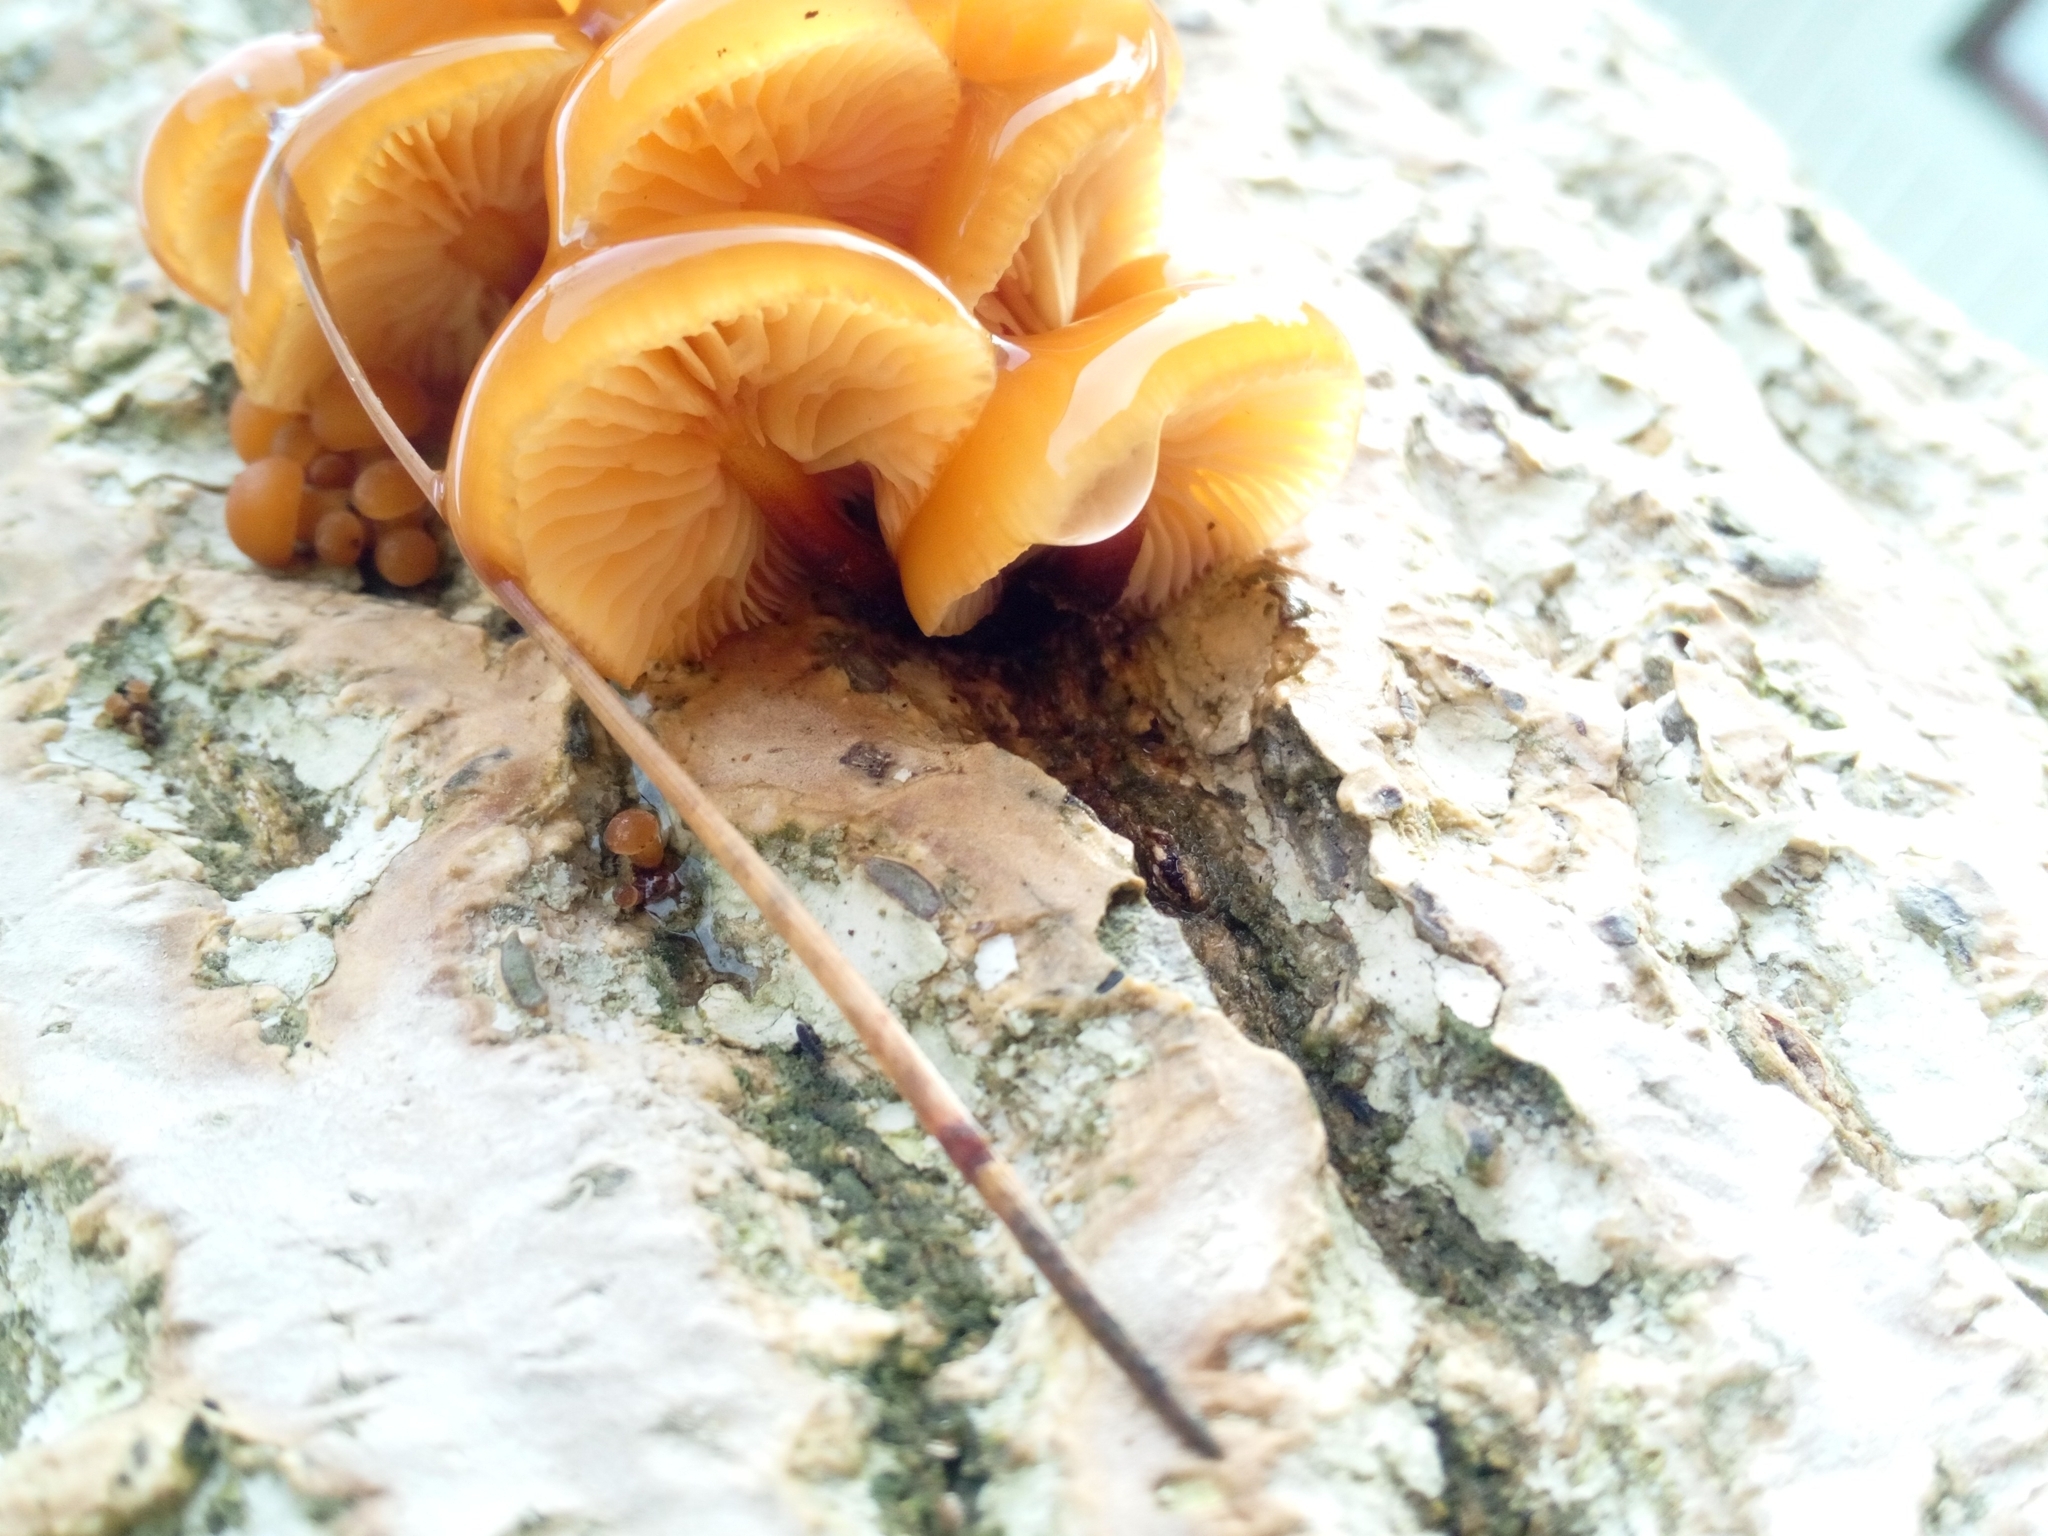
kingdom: Fungi
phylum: Basidiomycota
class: Agaricomycetes
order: Agaricales
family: Physalacriaceae
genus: Flammulina
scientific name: Flammulina
